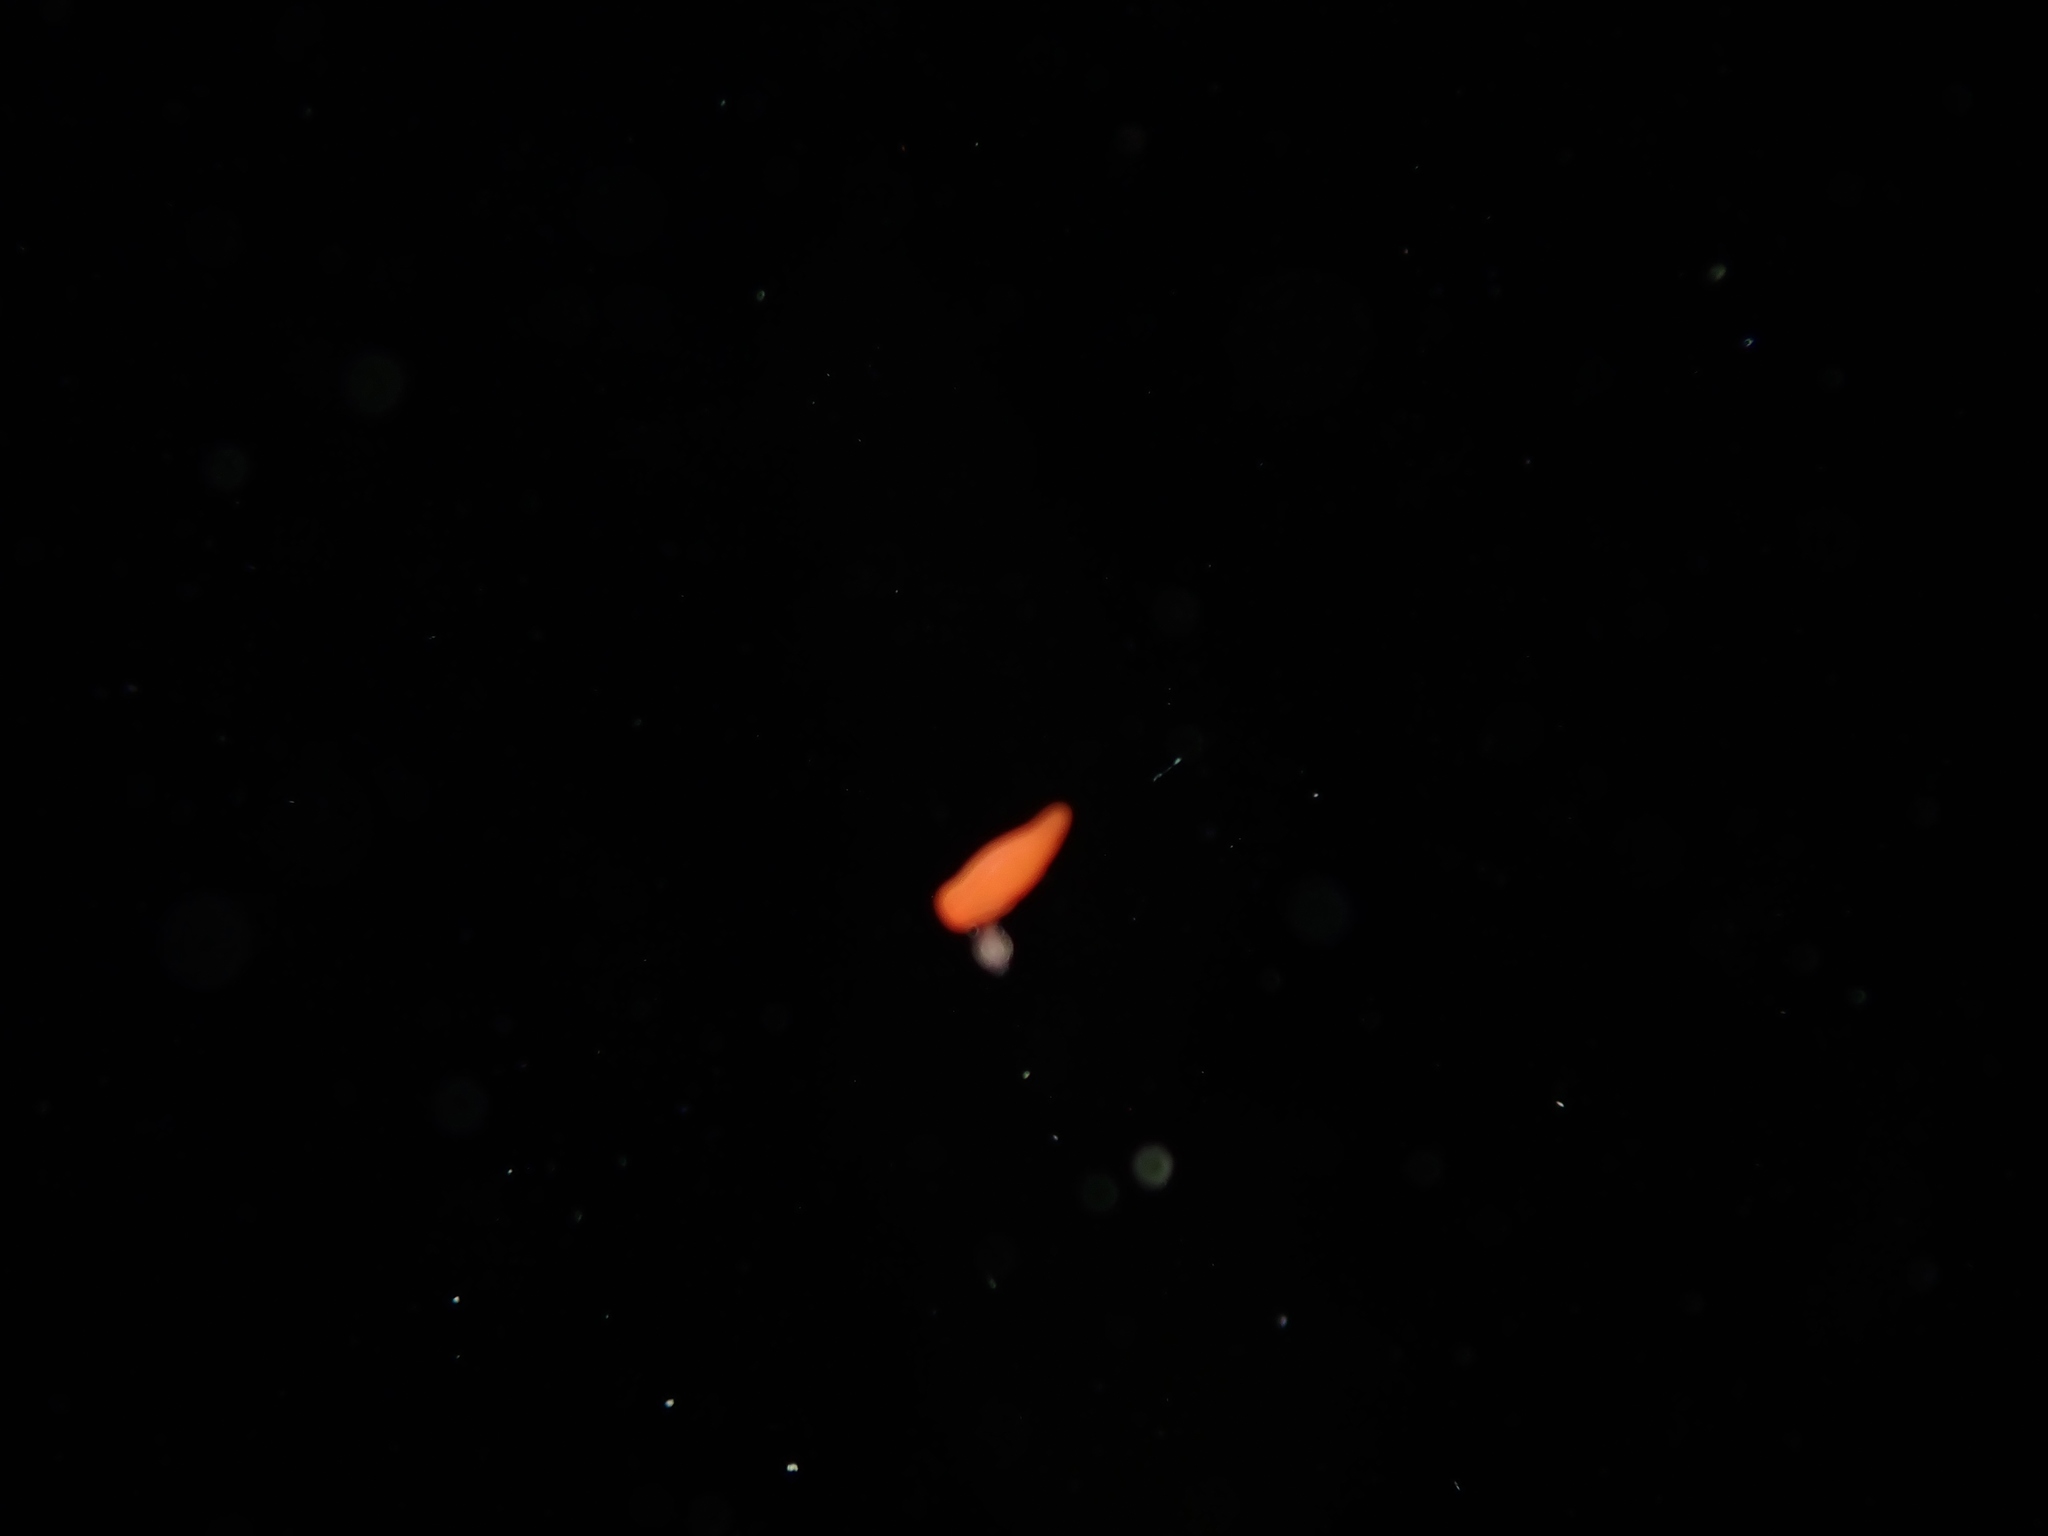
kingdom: Animalia
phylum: Mollusca
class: Gastropoda
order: Nudibranchia
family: Okadaiidae
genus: Vayssierea
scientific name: Vayssierea cinnabarea
